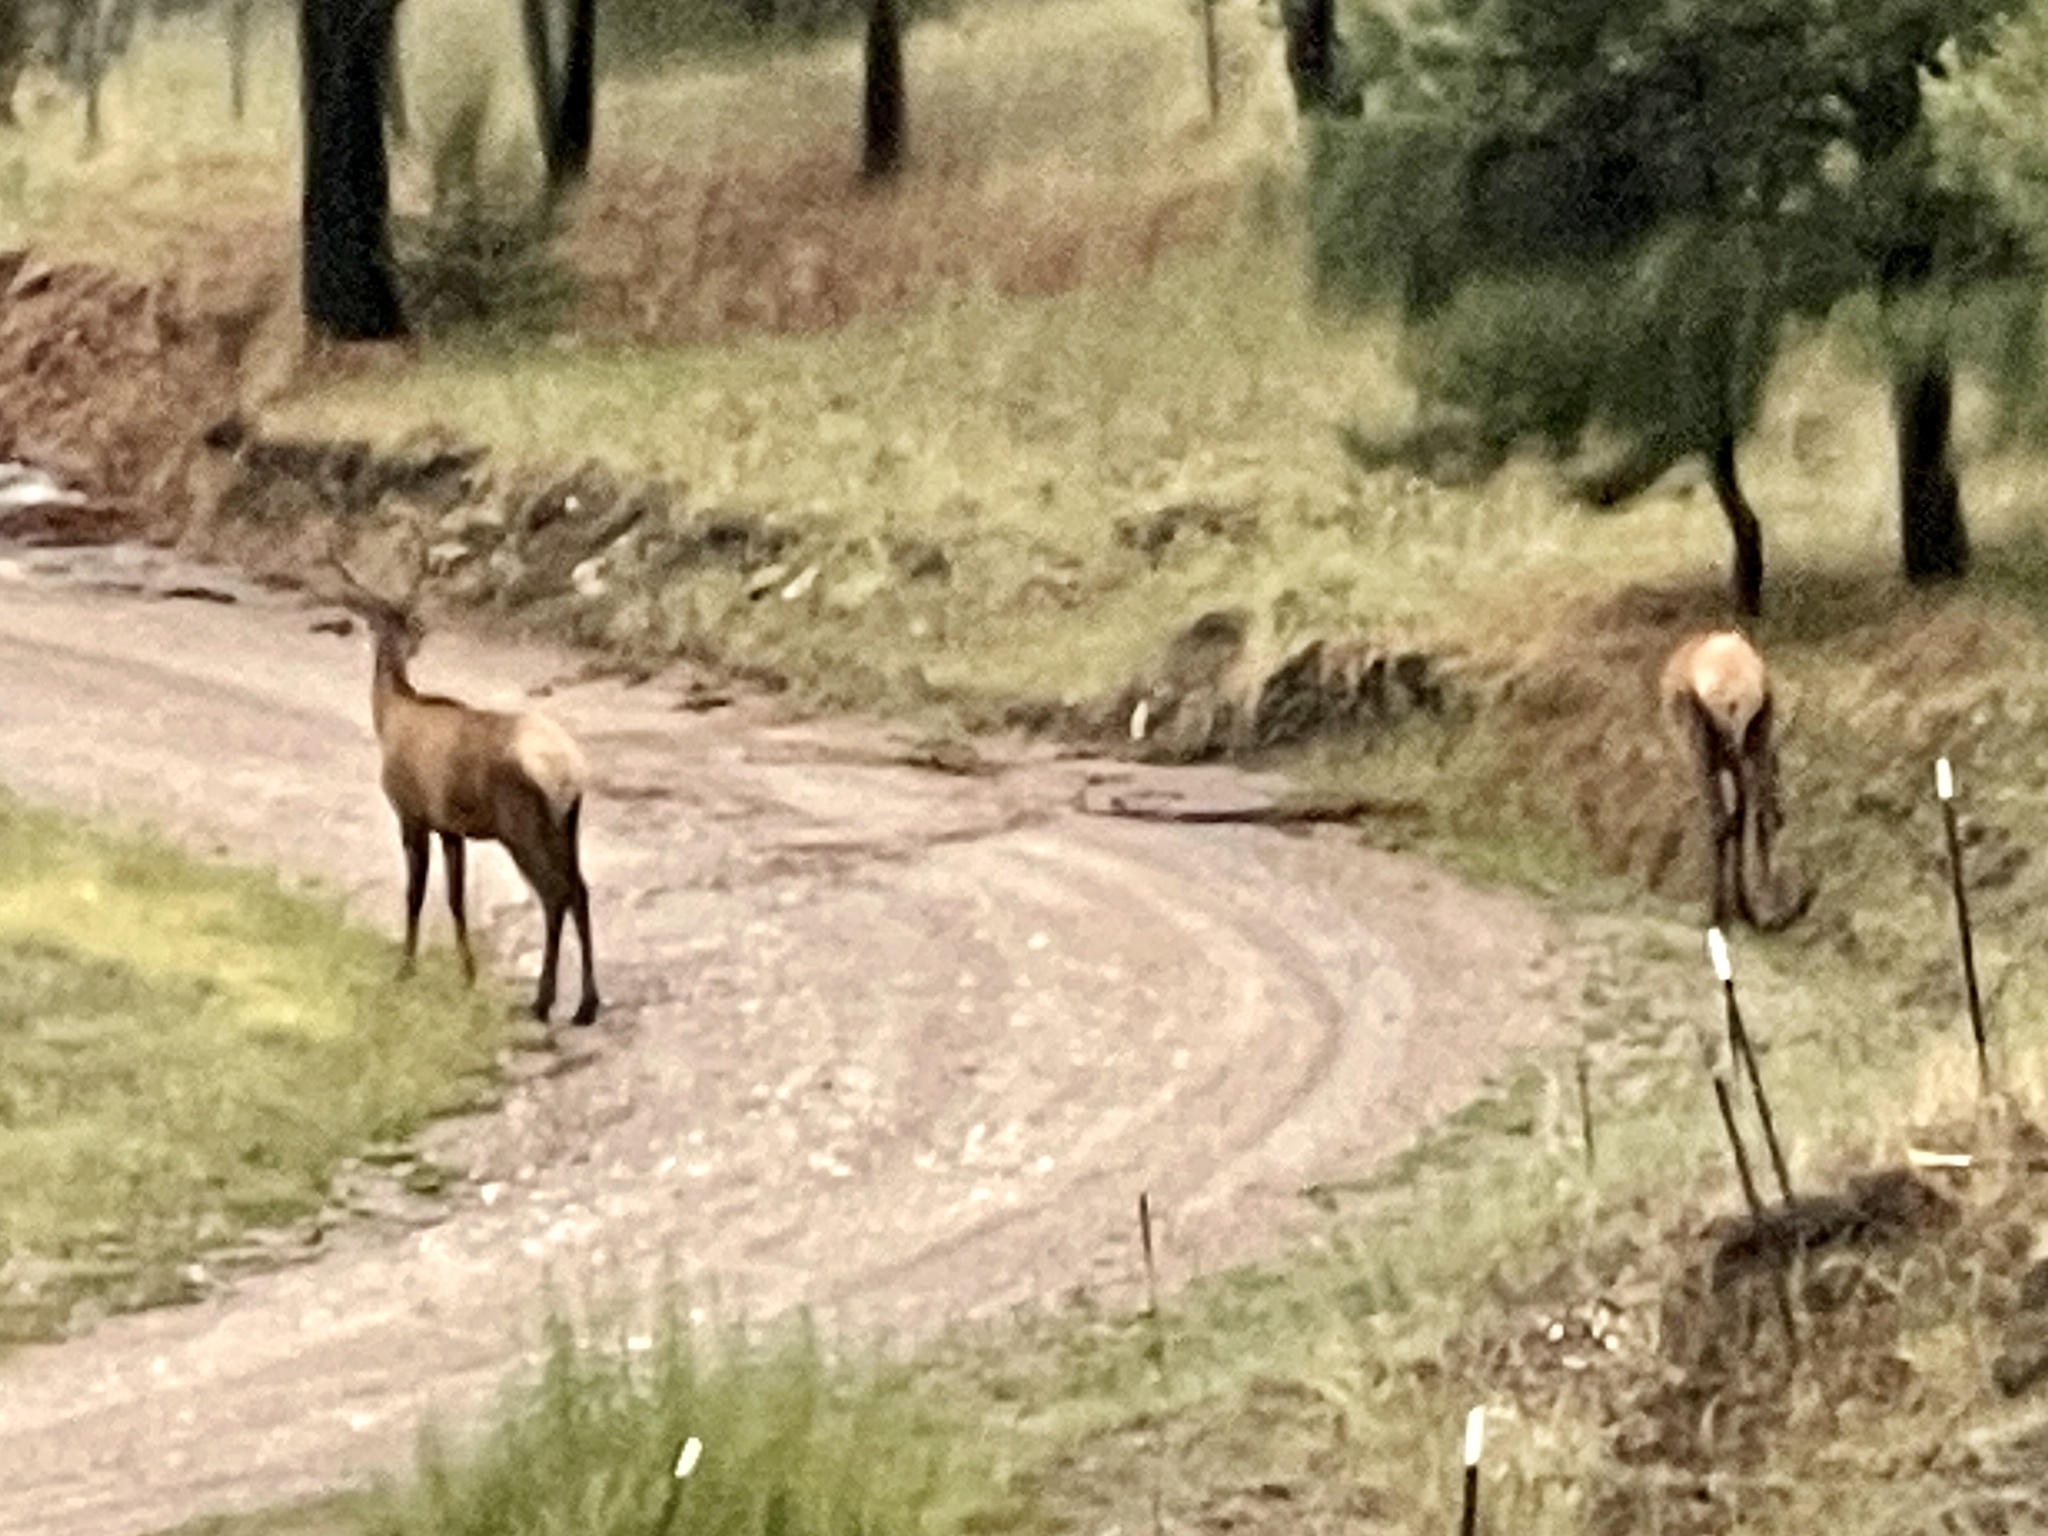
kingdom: Animalia
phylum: Chordata
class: Mammalia
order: Artiodactyla
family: Cervidae
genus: Cervus
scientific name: Cervus elaphus
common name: Red deer
